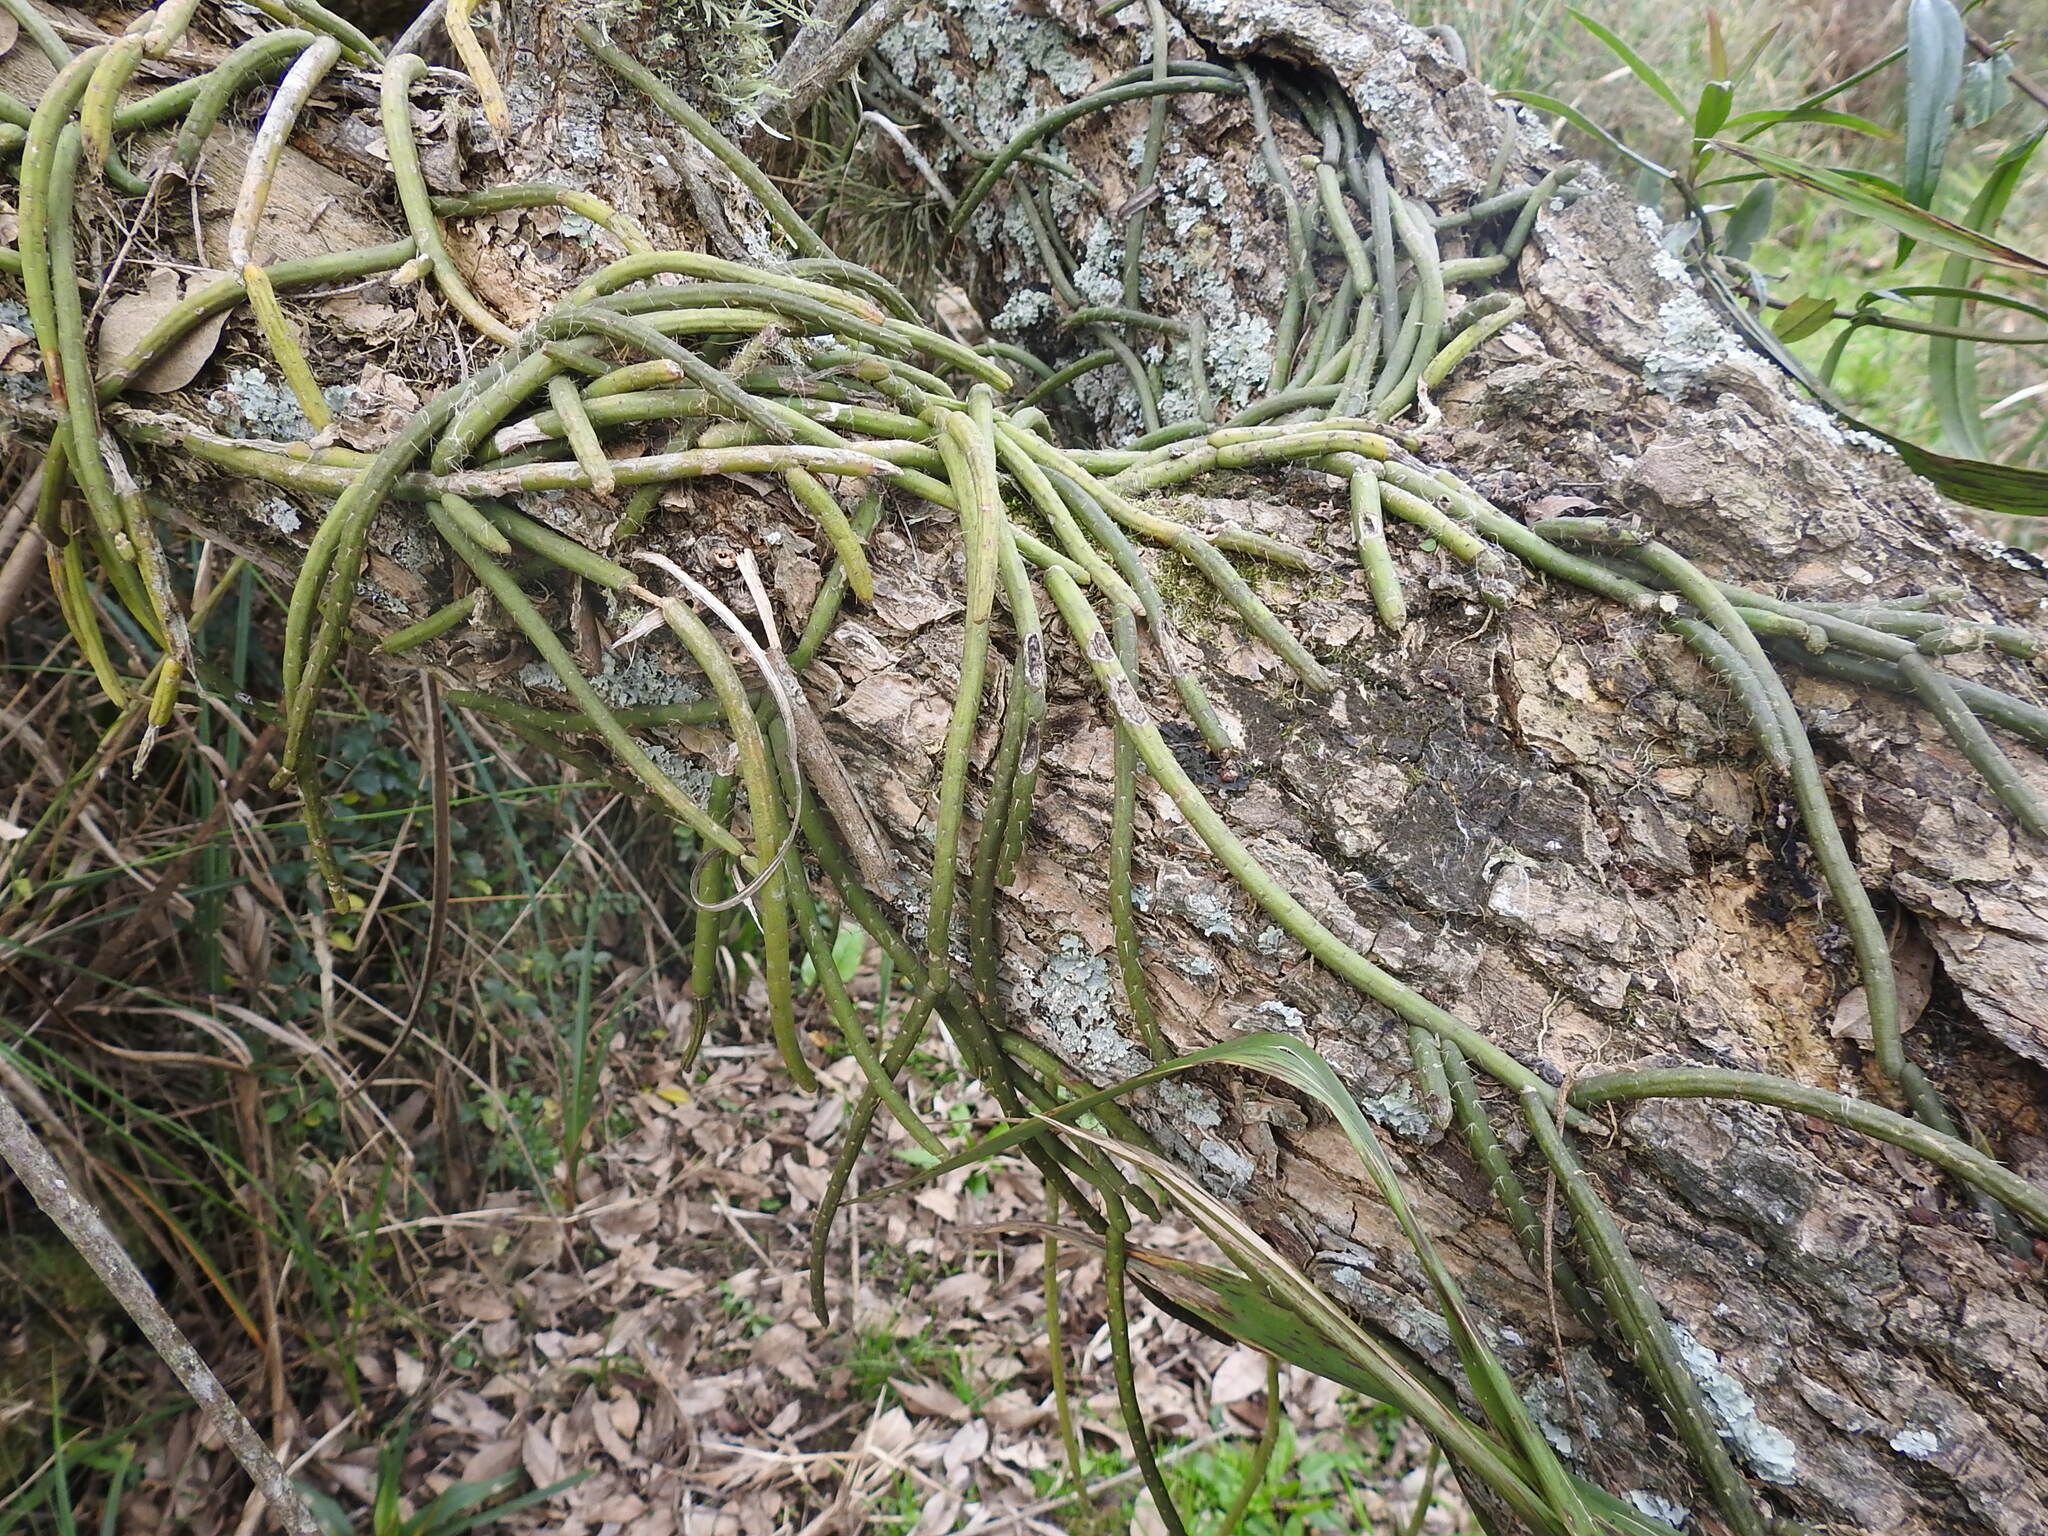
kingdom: Plantae
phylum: Tracheophyta
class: Magnoliopsida
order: Caryophyllales
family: Cactaceae
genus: Lepismium
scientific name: Lepismium lumbricoides
